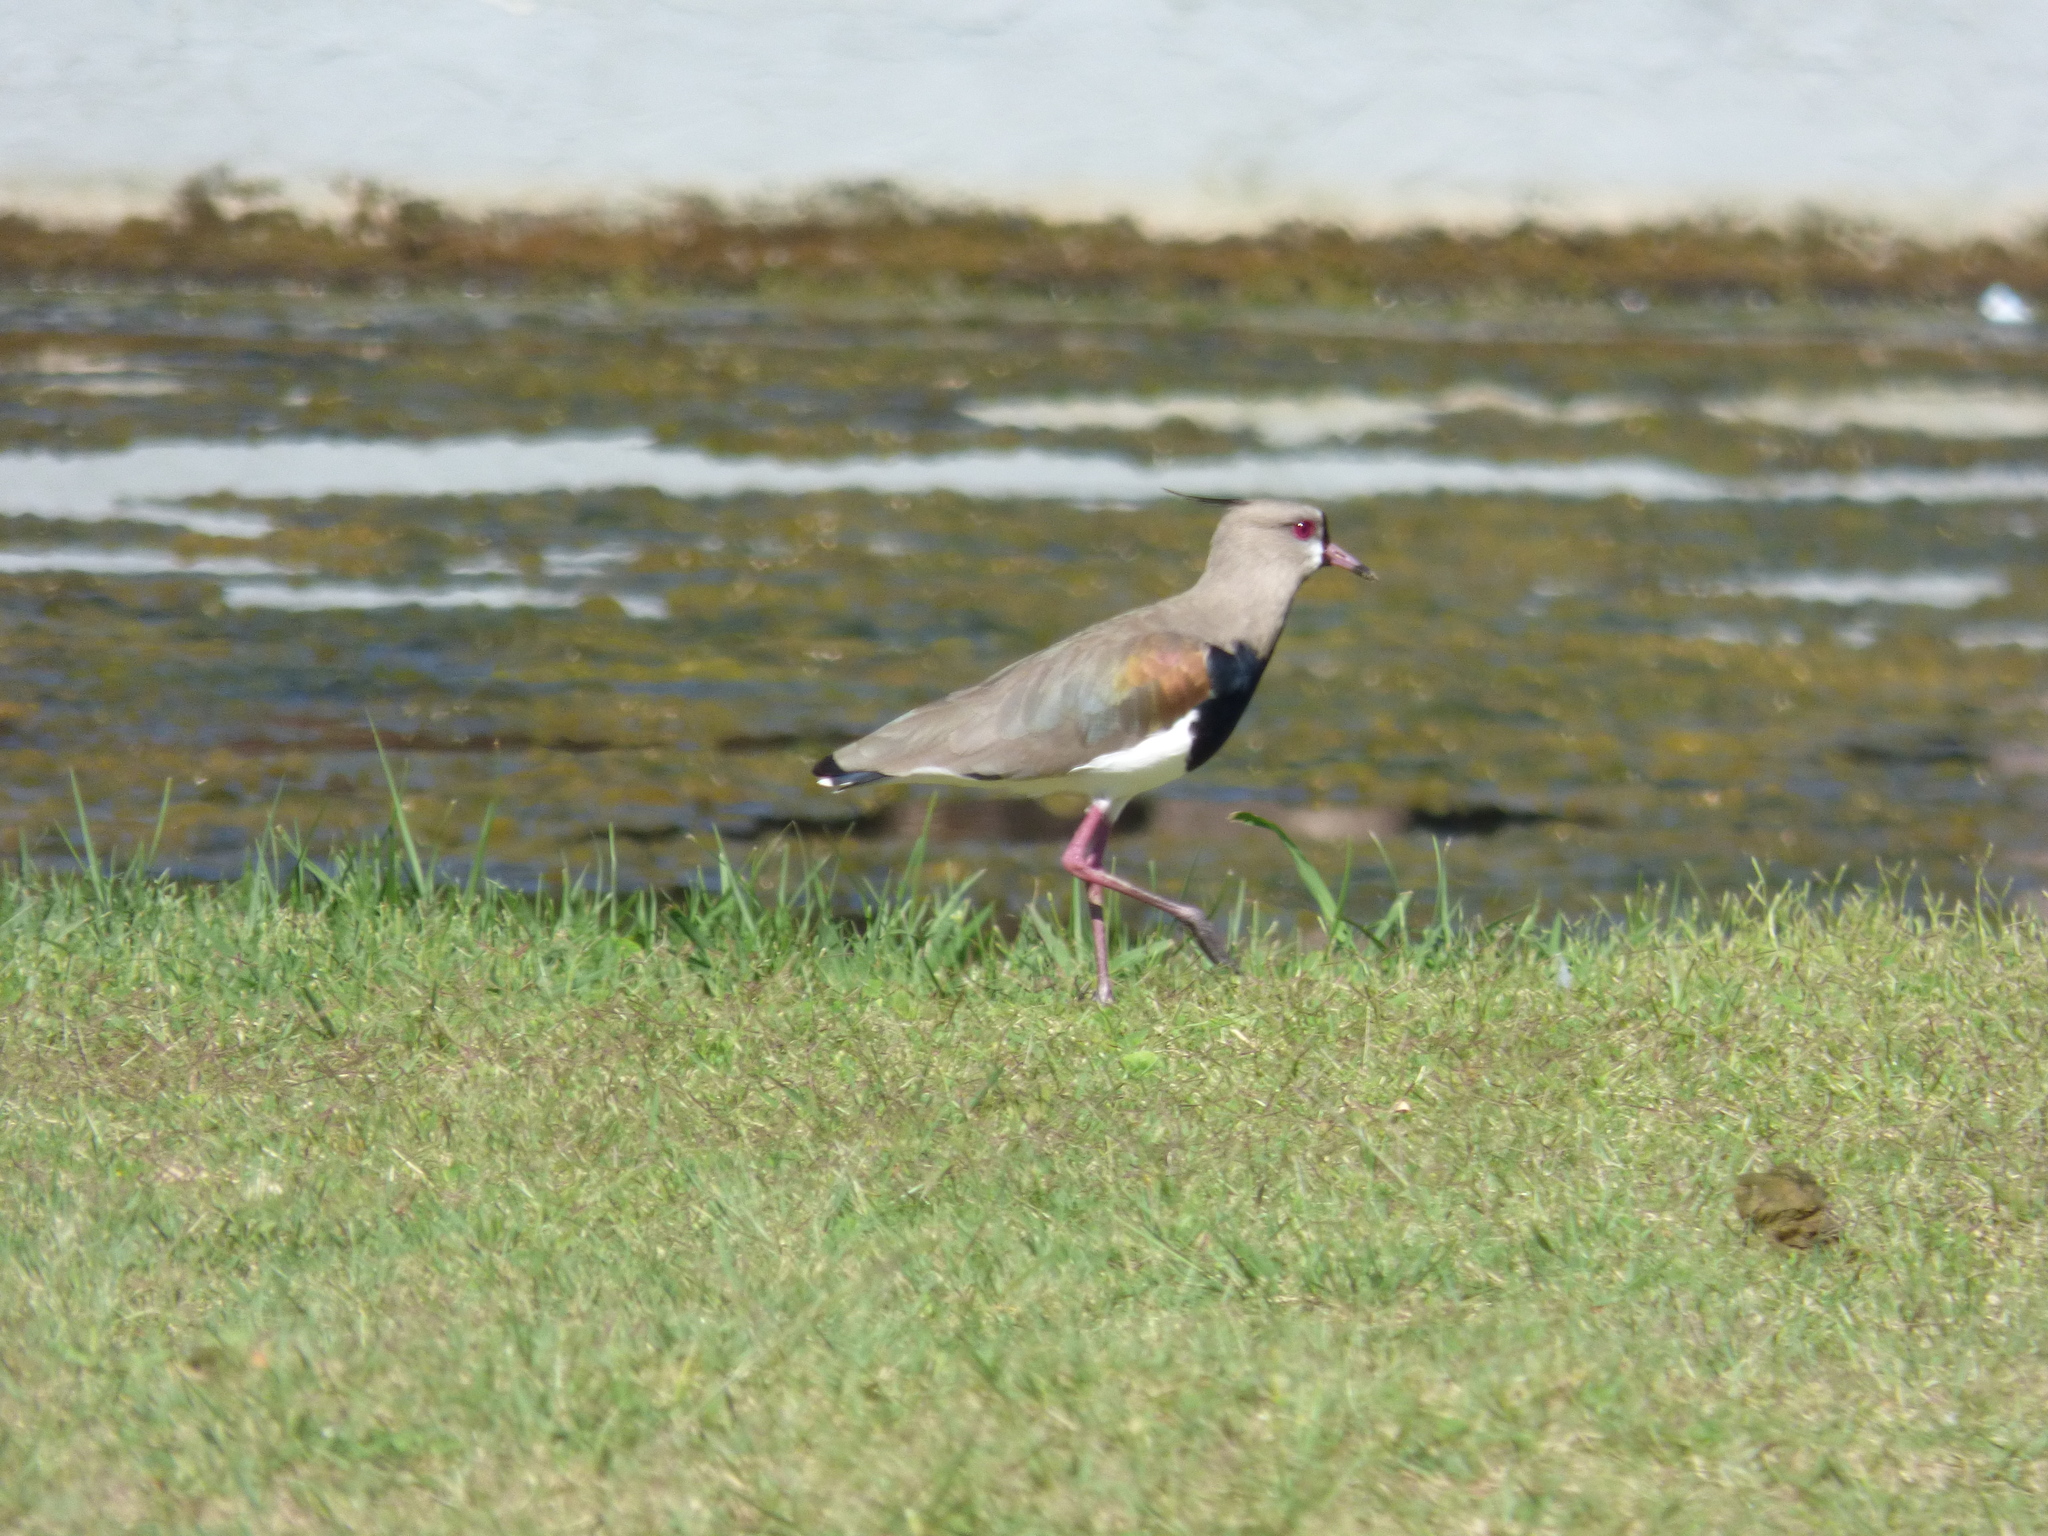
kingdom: Animalia
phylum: Chordata
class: Aves
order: Charadriiformes
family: Charadriidae
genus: Vanellus
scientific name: Vanellus chilensis
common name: Southern lapwing
